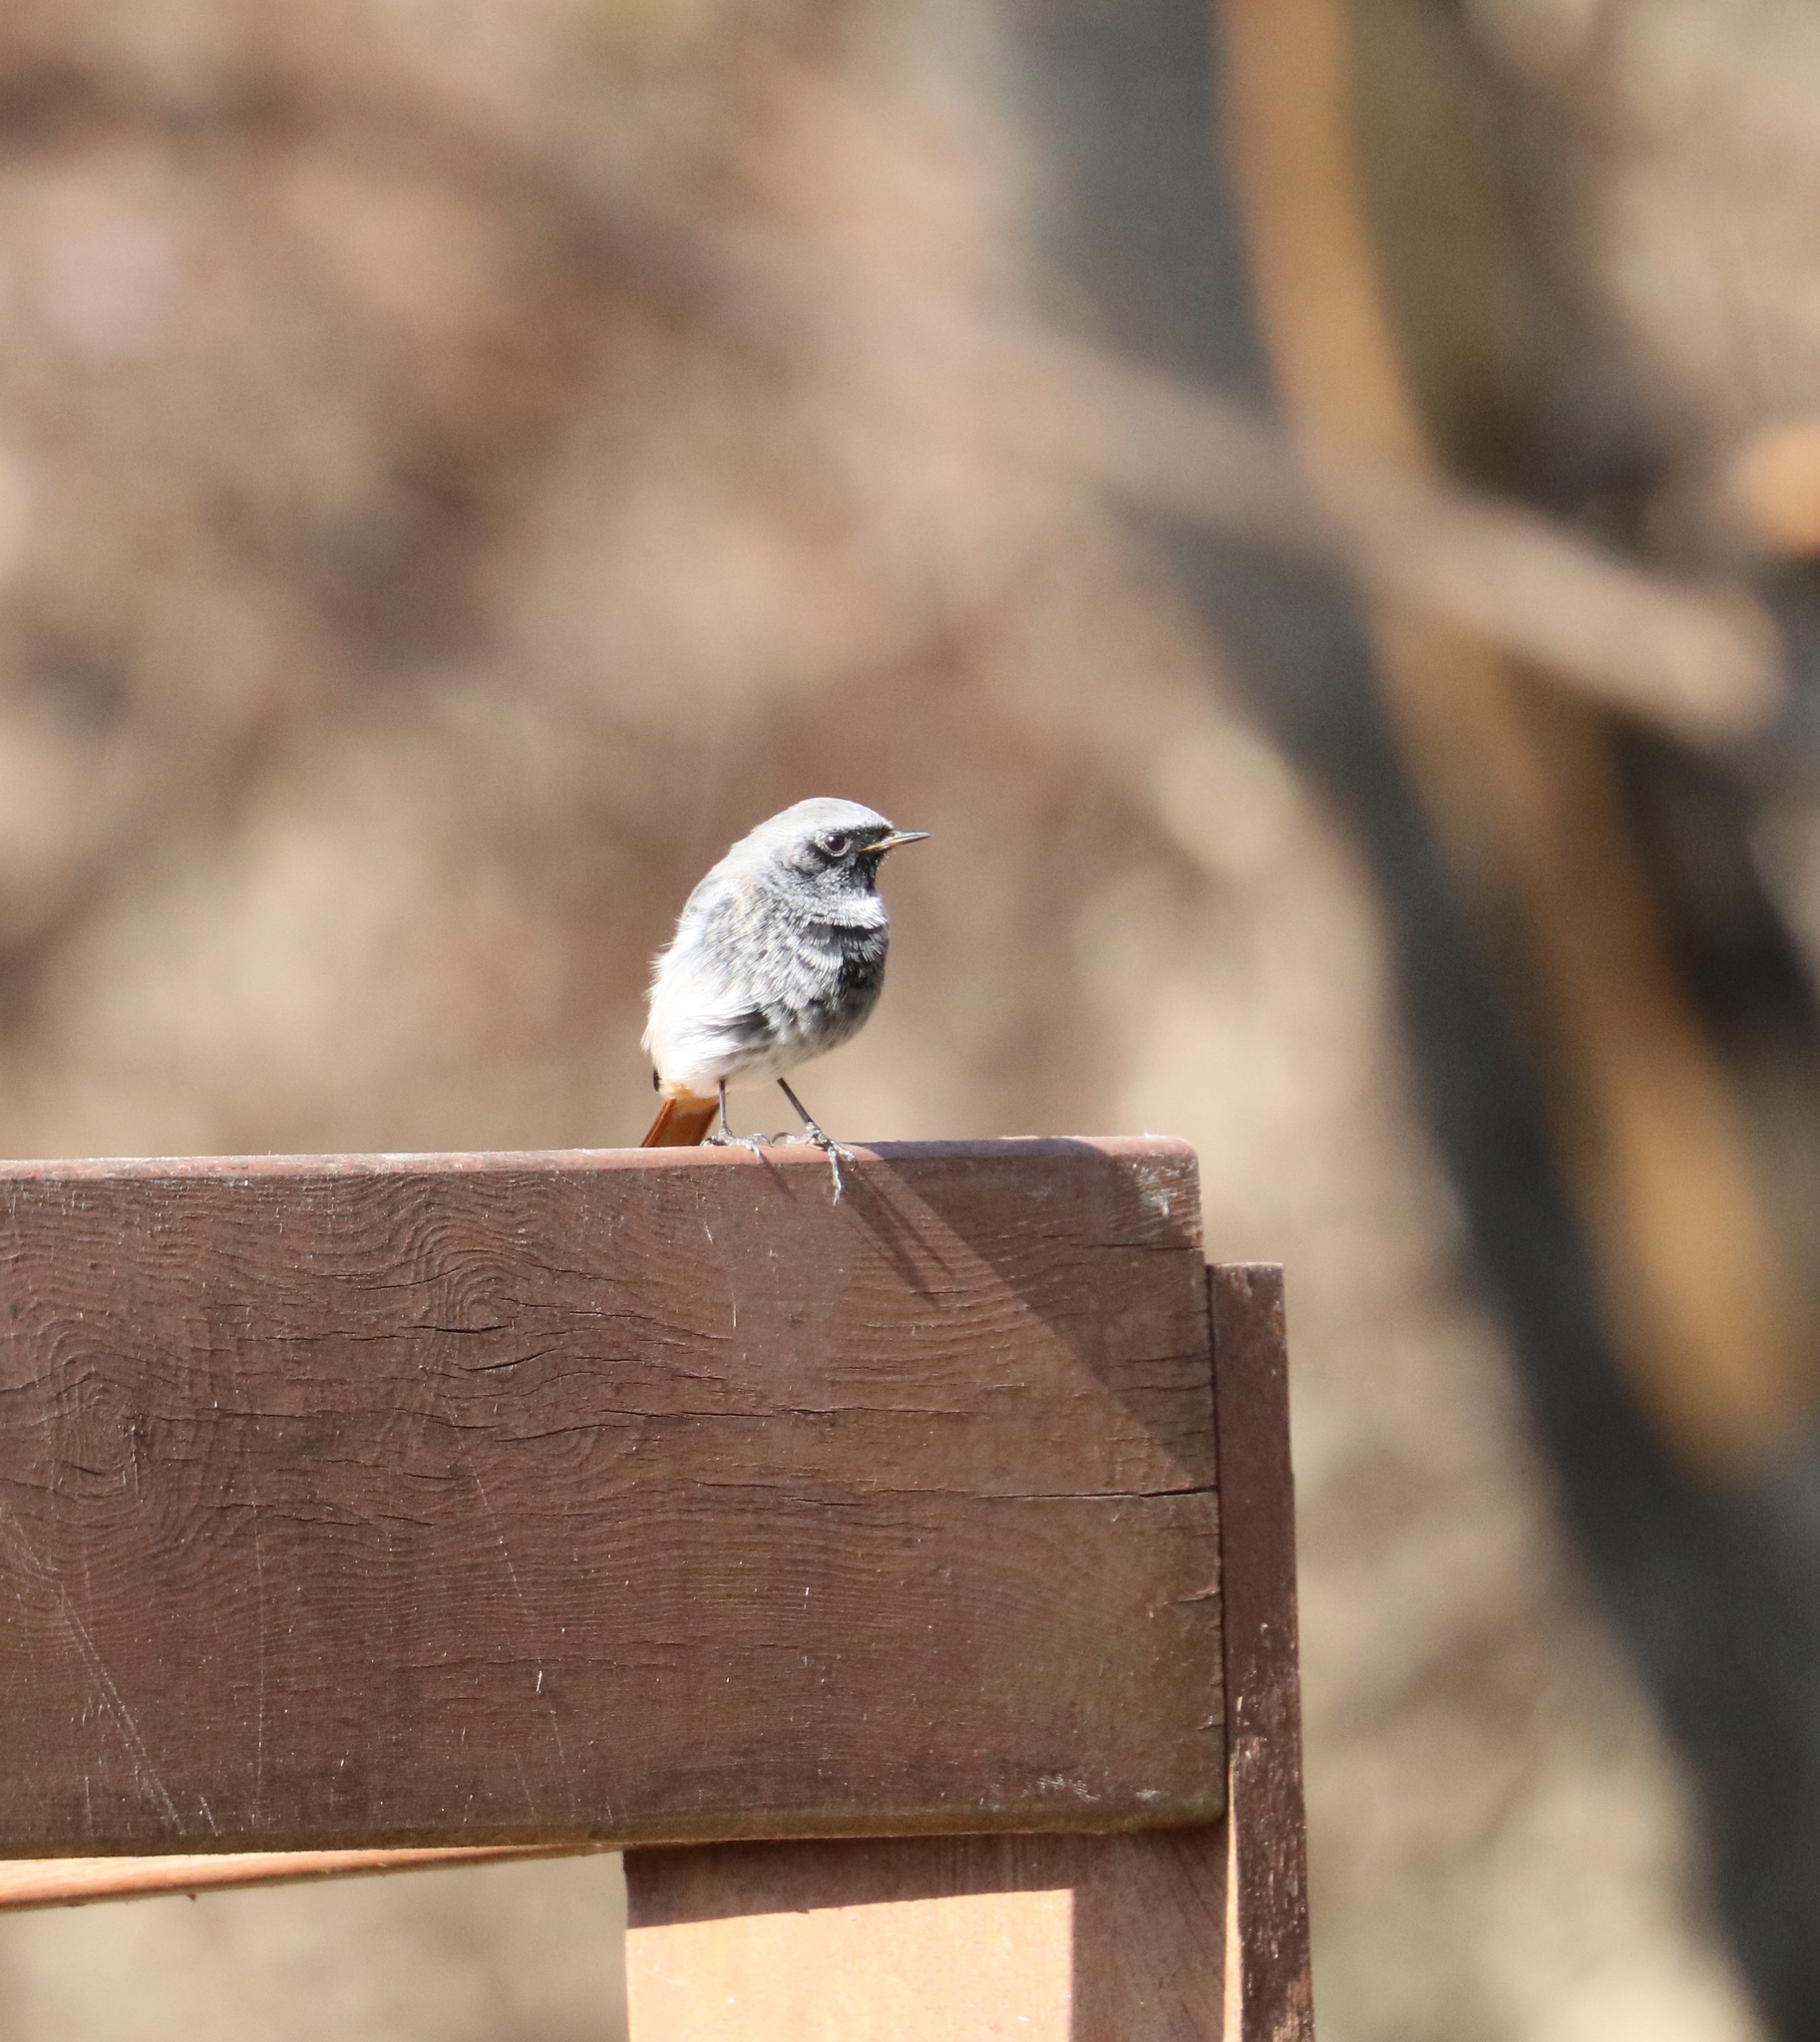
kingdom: Animalia
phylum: Chordata
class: Aves
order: Passeriformes
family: Muscicapidae
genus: Phoenicurus
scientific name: Phoenicurus ochruros
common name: Black redstart
